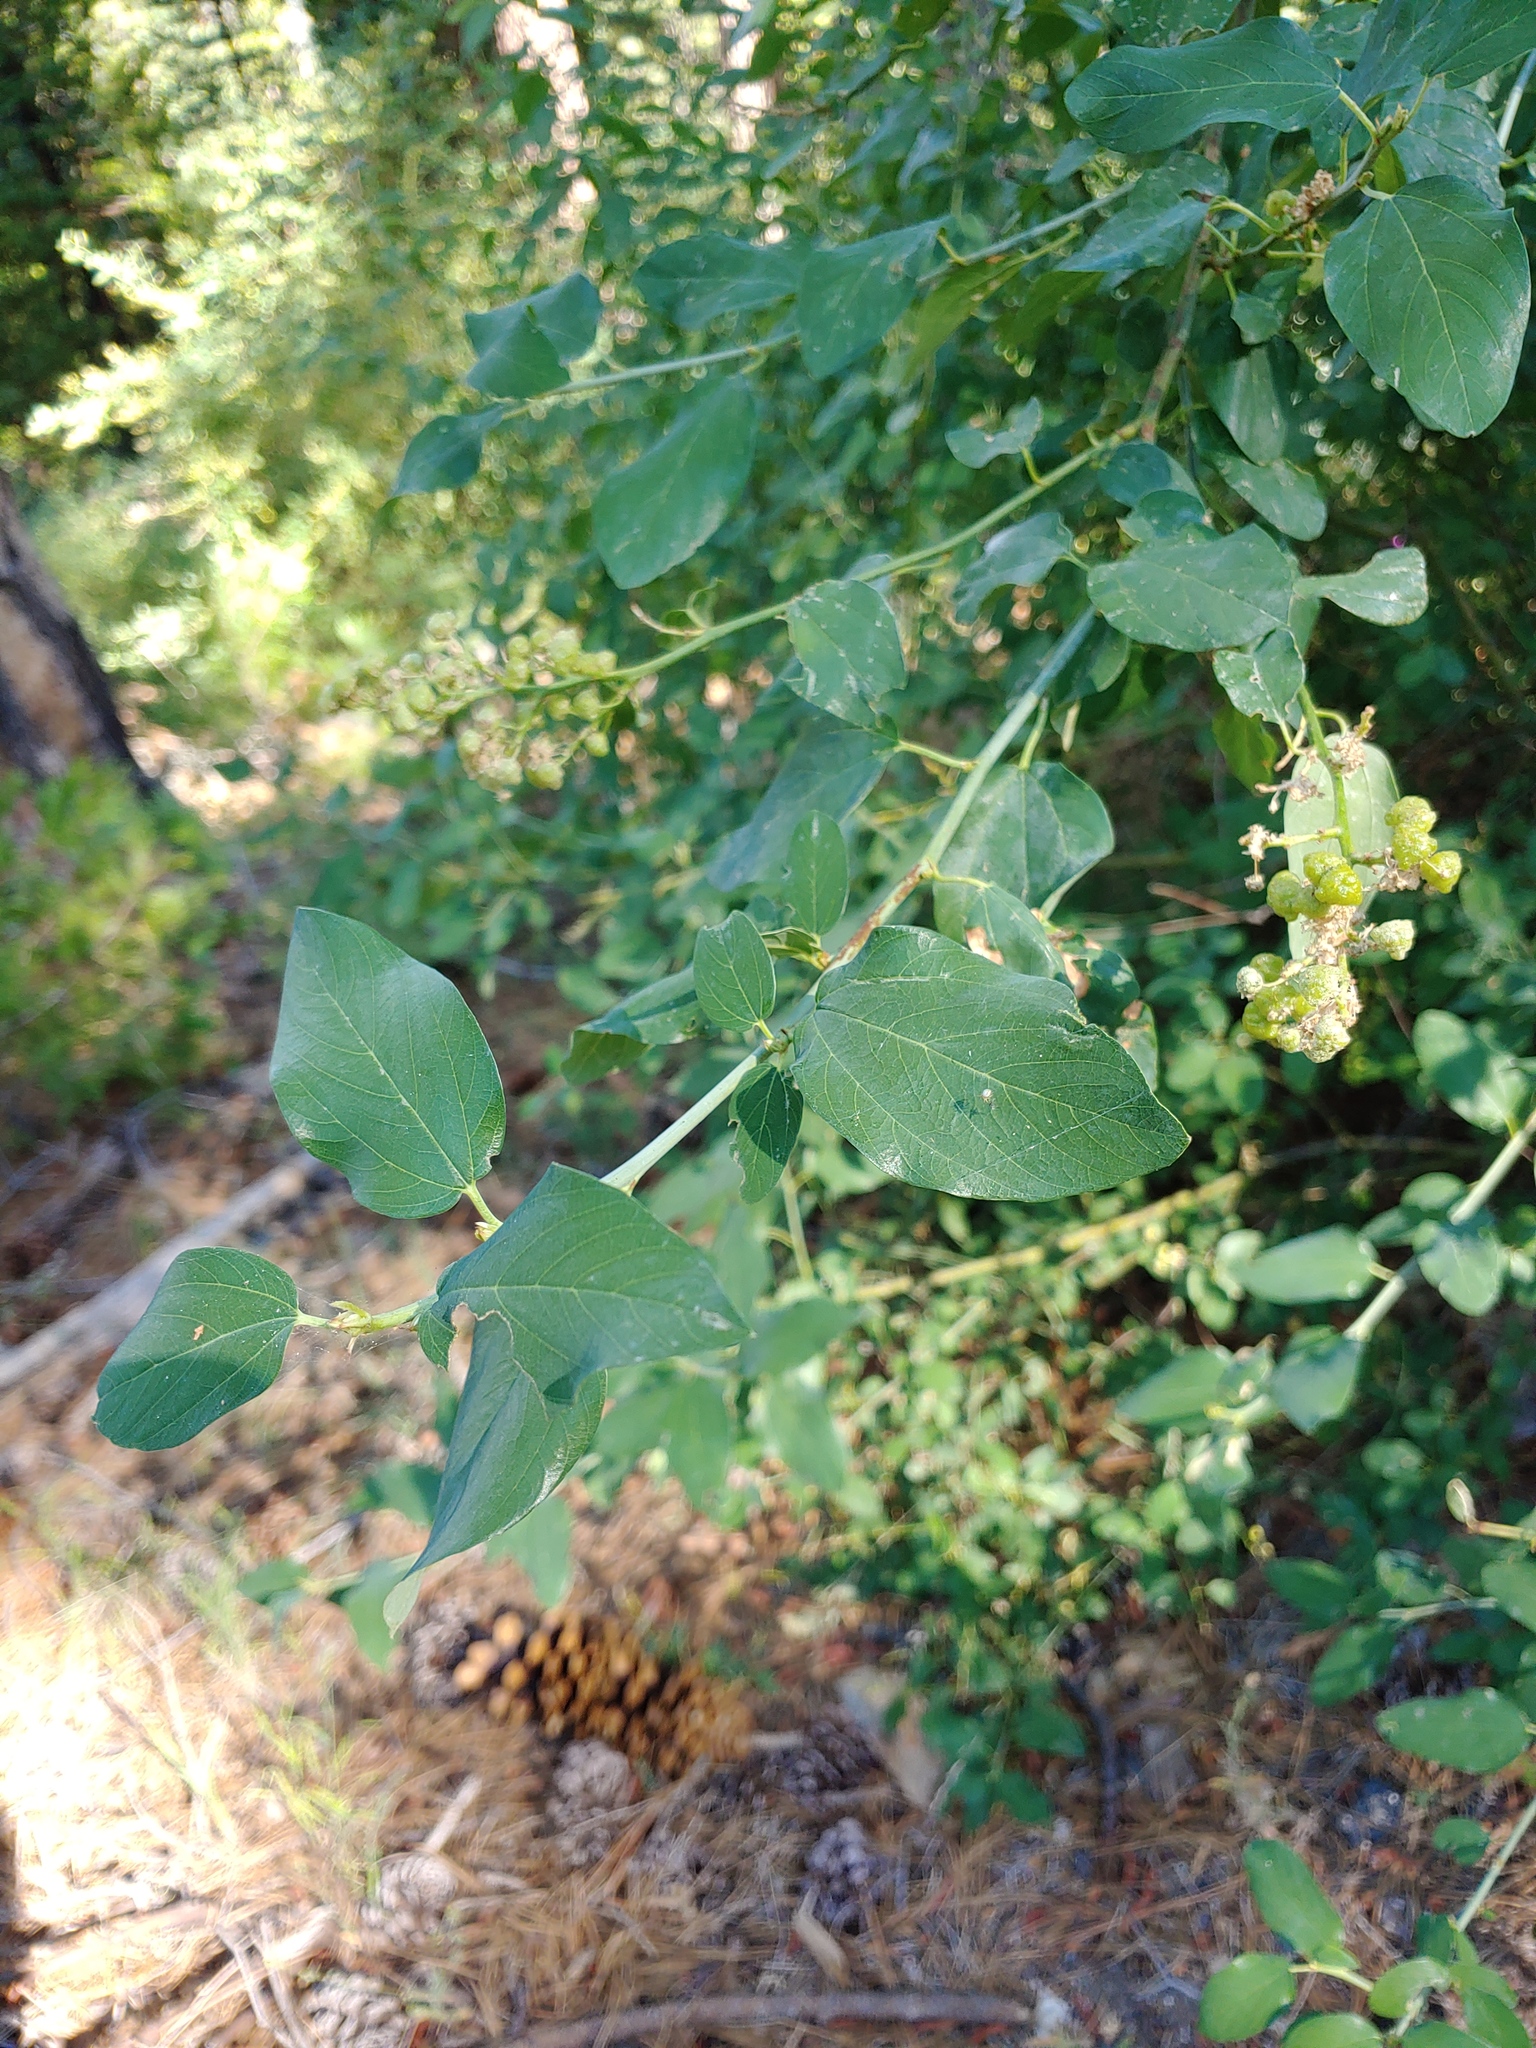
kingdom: Plantae
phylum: Tracheophyta
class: Magnoliopsida
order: Rosales
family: Rhamnaceae
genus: Ceanothus
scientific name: Ceanothus integerrimus
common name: Deerbrush ceanothus
